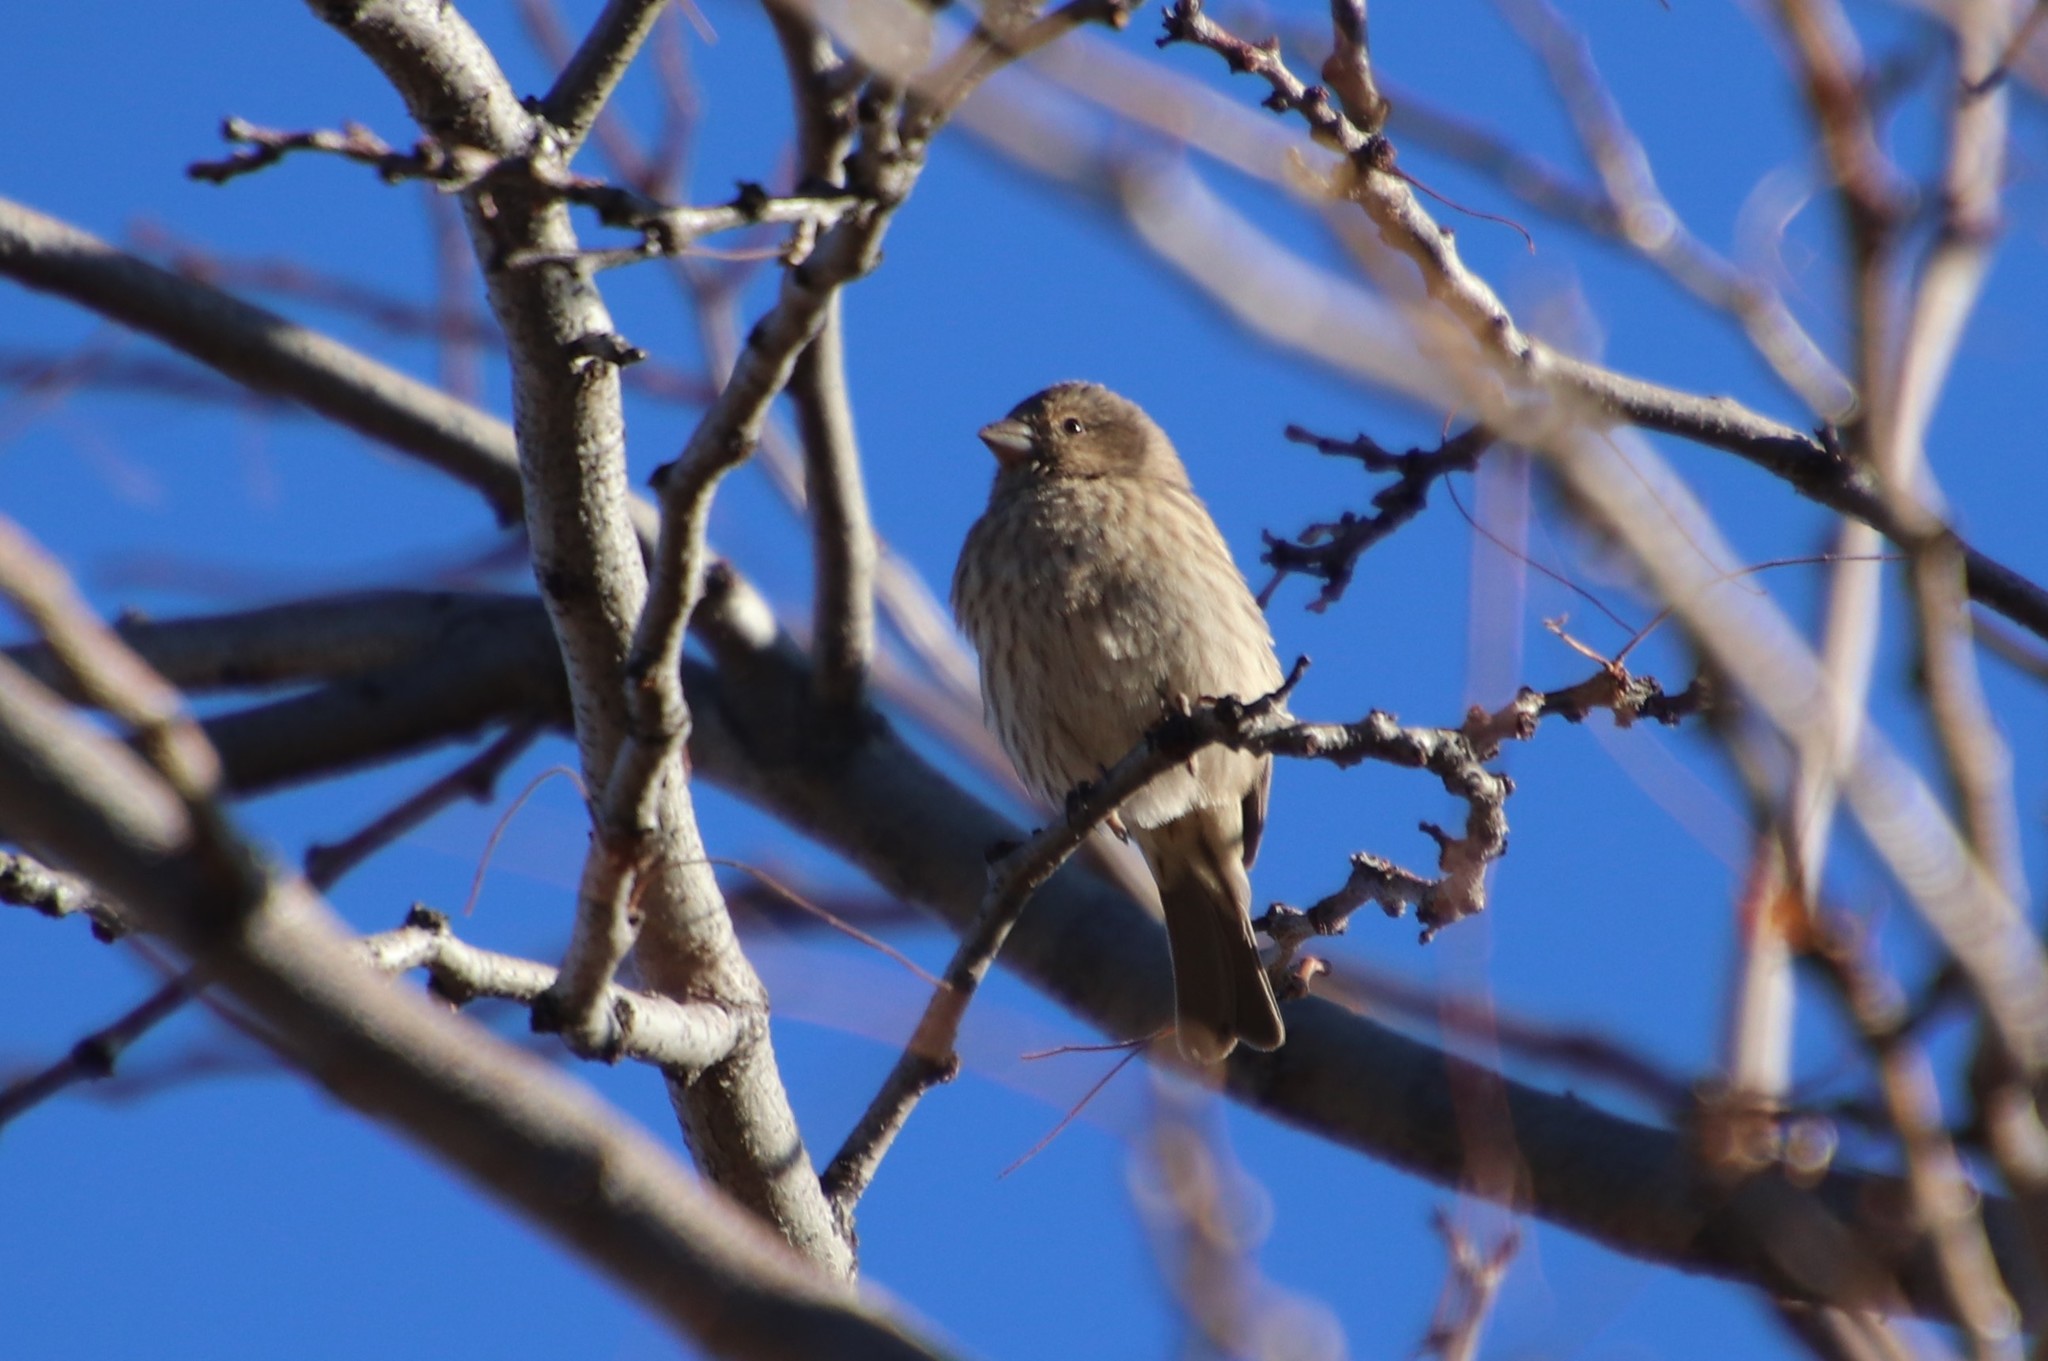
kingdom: Animalia
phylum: Chordata
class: Aves
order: Passeriformes
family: Fringillidae
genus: Haemorhous
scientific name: Haemorhous mexicanus
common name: House finch
